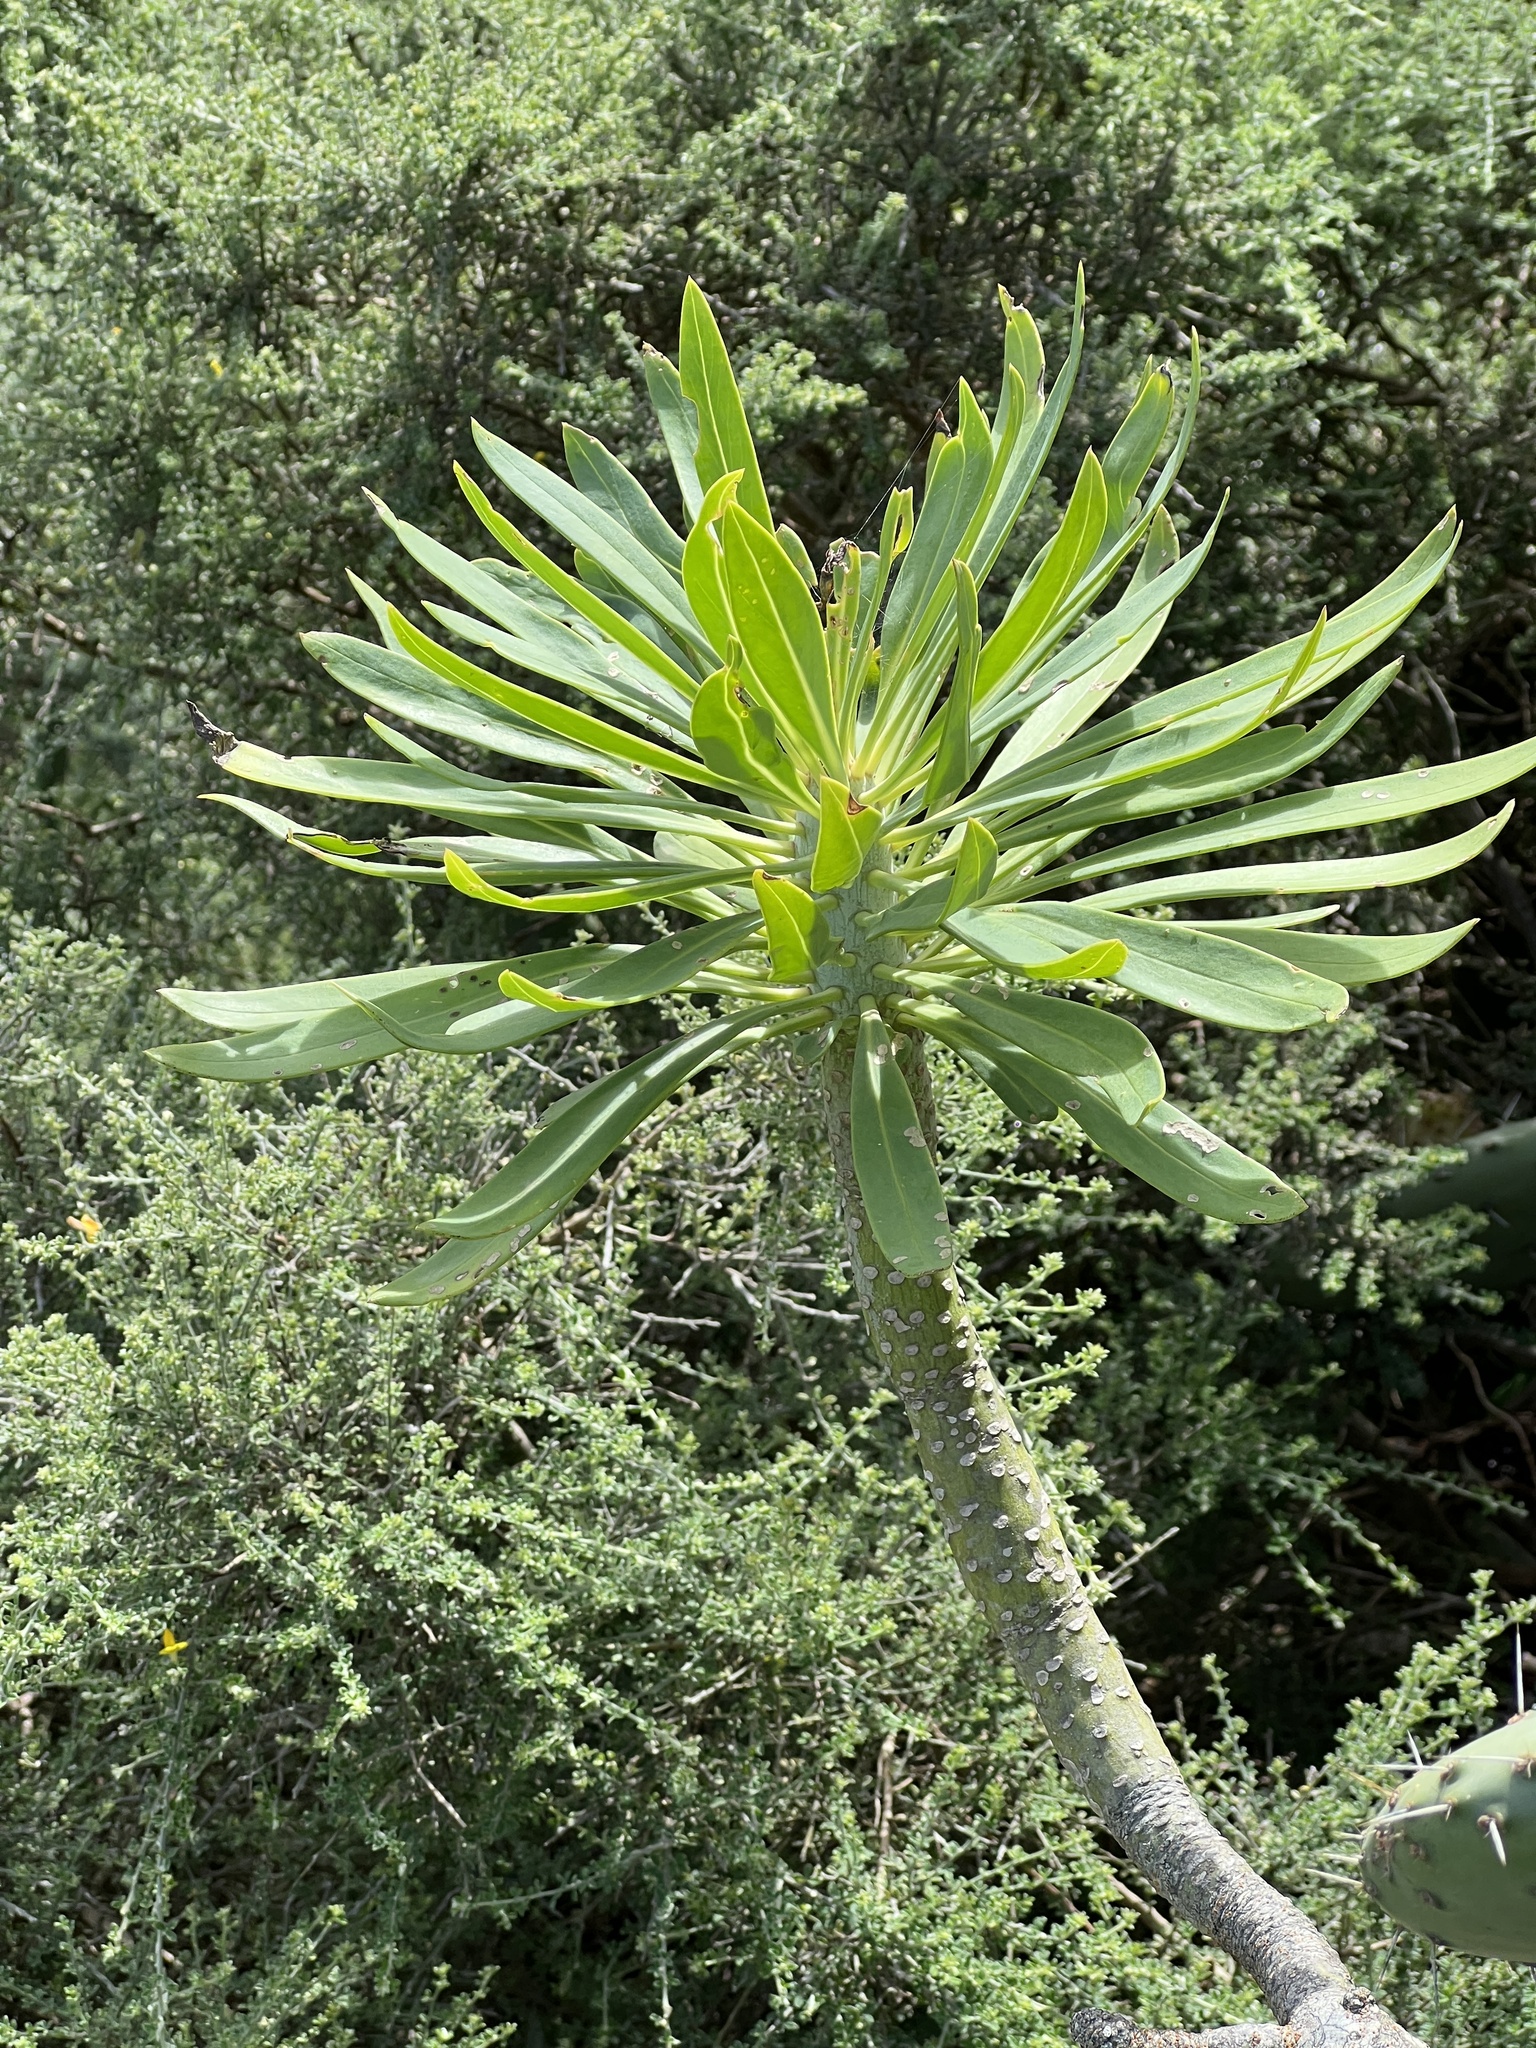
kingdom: Plantae
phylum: Tracheophyta
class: Magnoliopsida
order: Asterales
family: Asteraceae
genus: Kleinia
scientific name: Kleinia neriifolia
